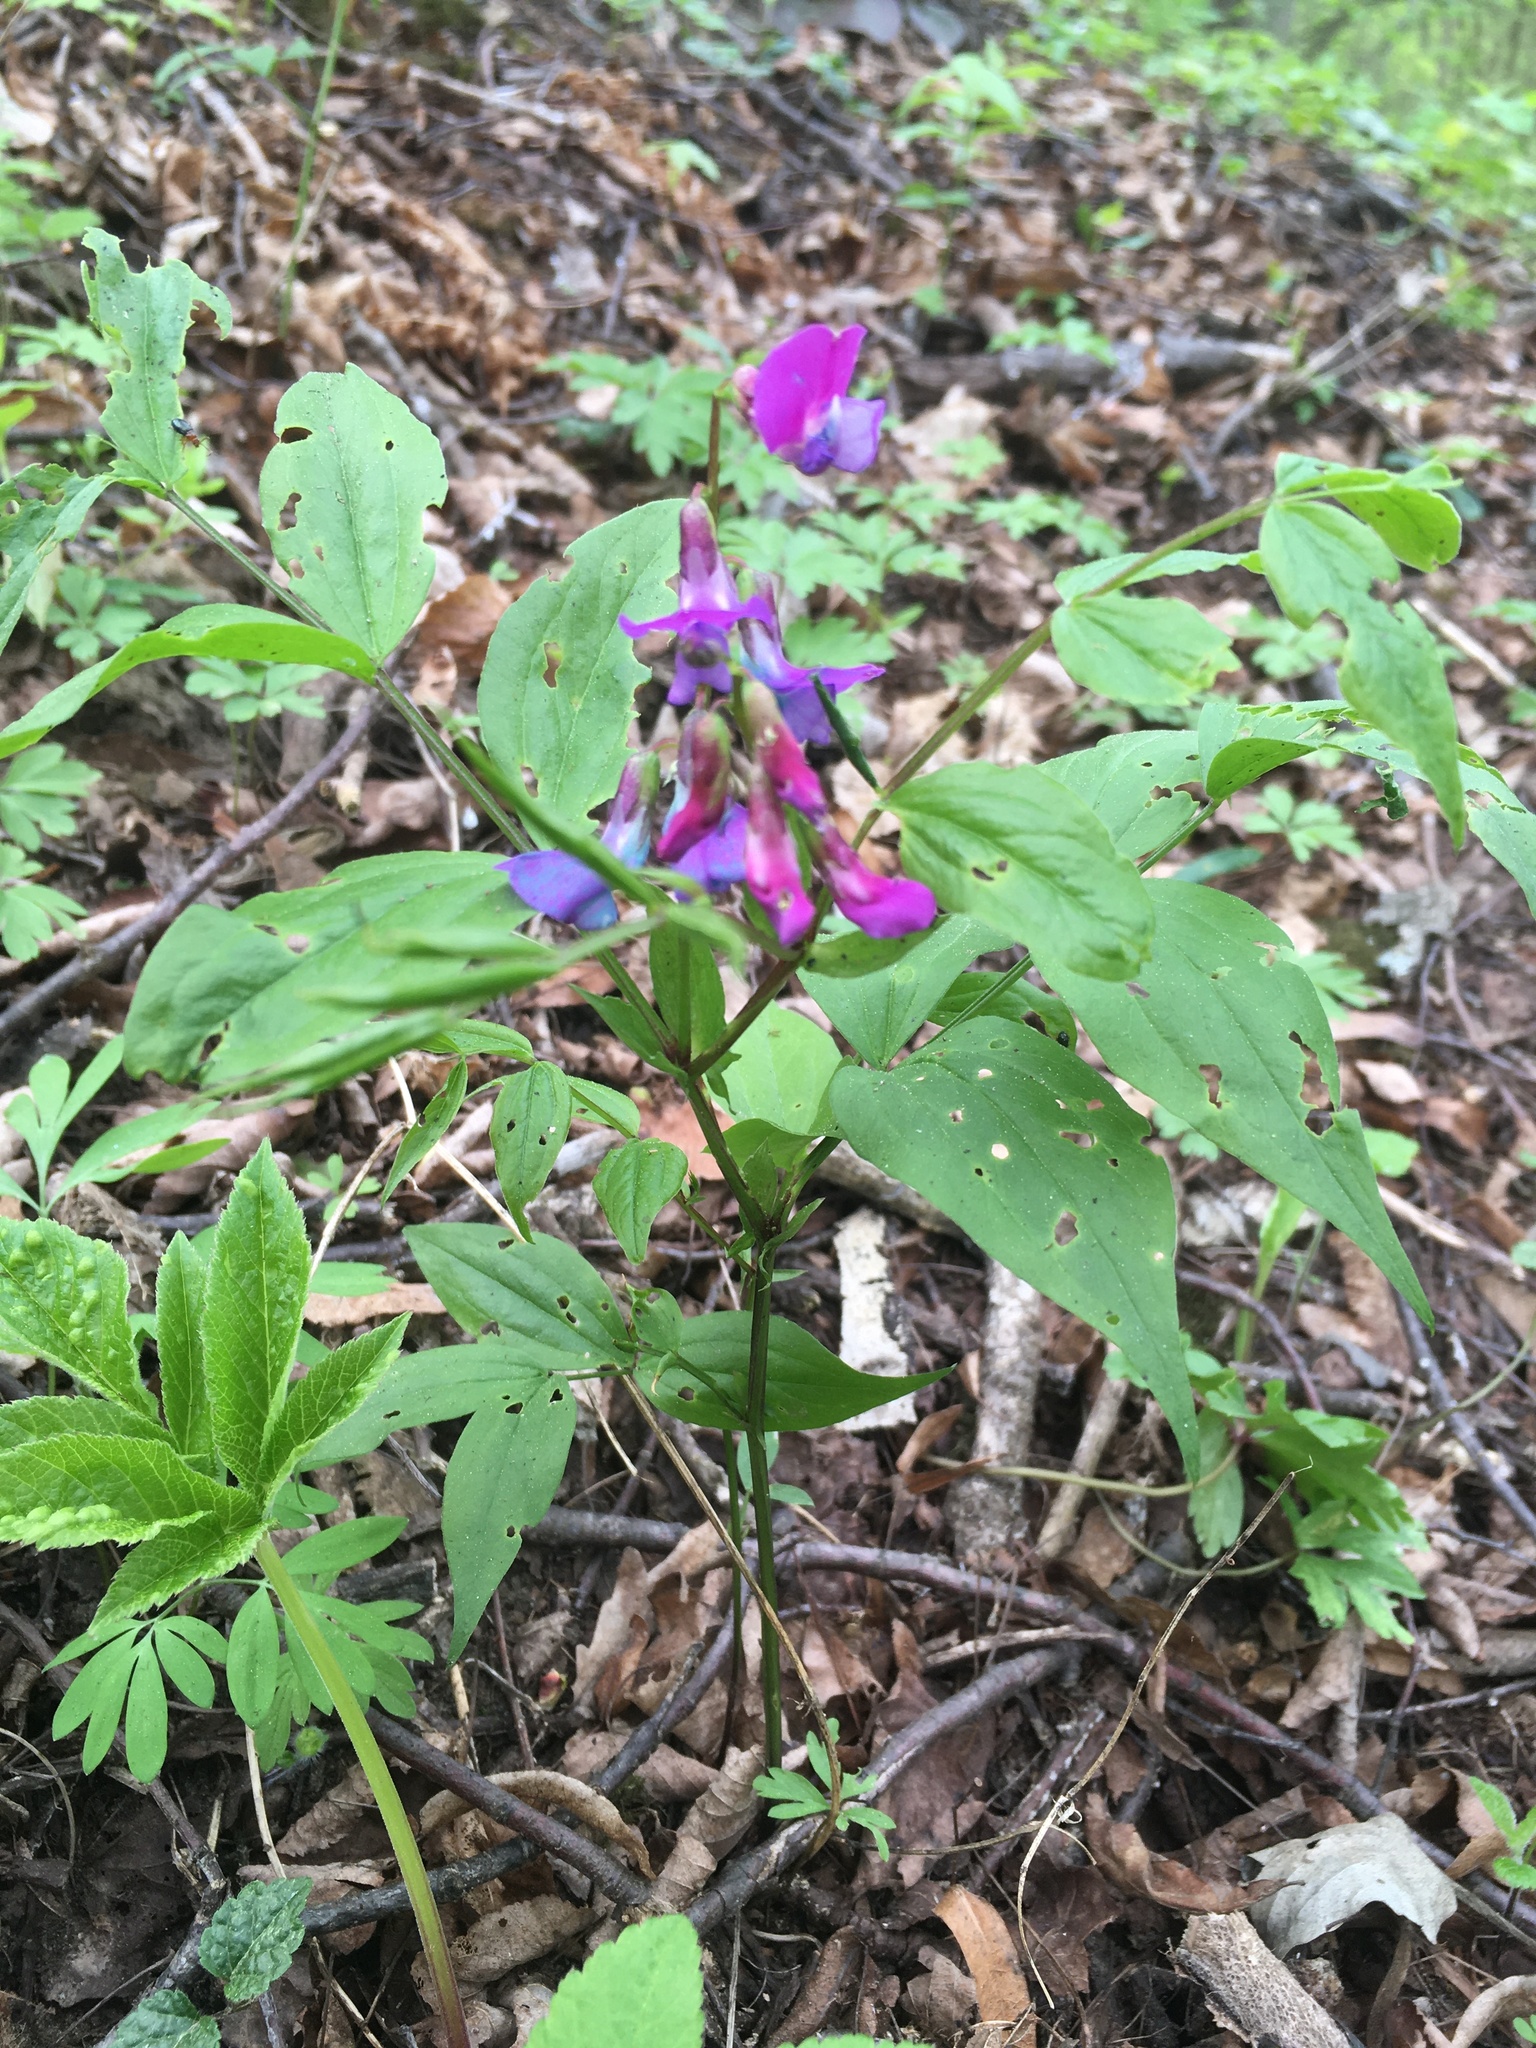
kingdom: Plantae
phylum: Tracheophyta
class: Magnoliopsida
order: Fabales
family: Fabaceae
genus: Lathyrus
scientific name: Lathyrus vernus
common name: Spring pea
